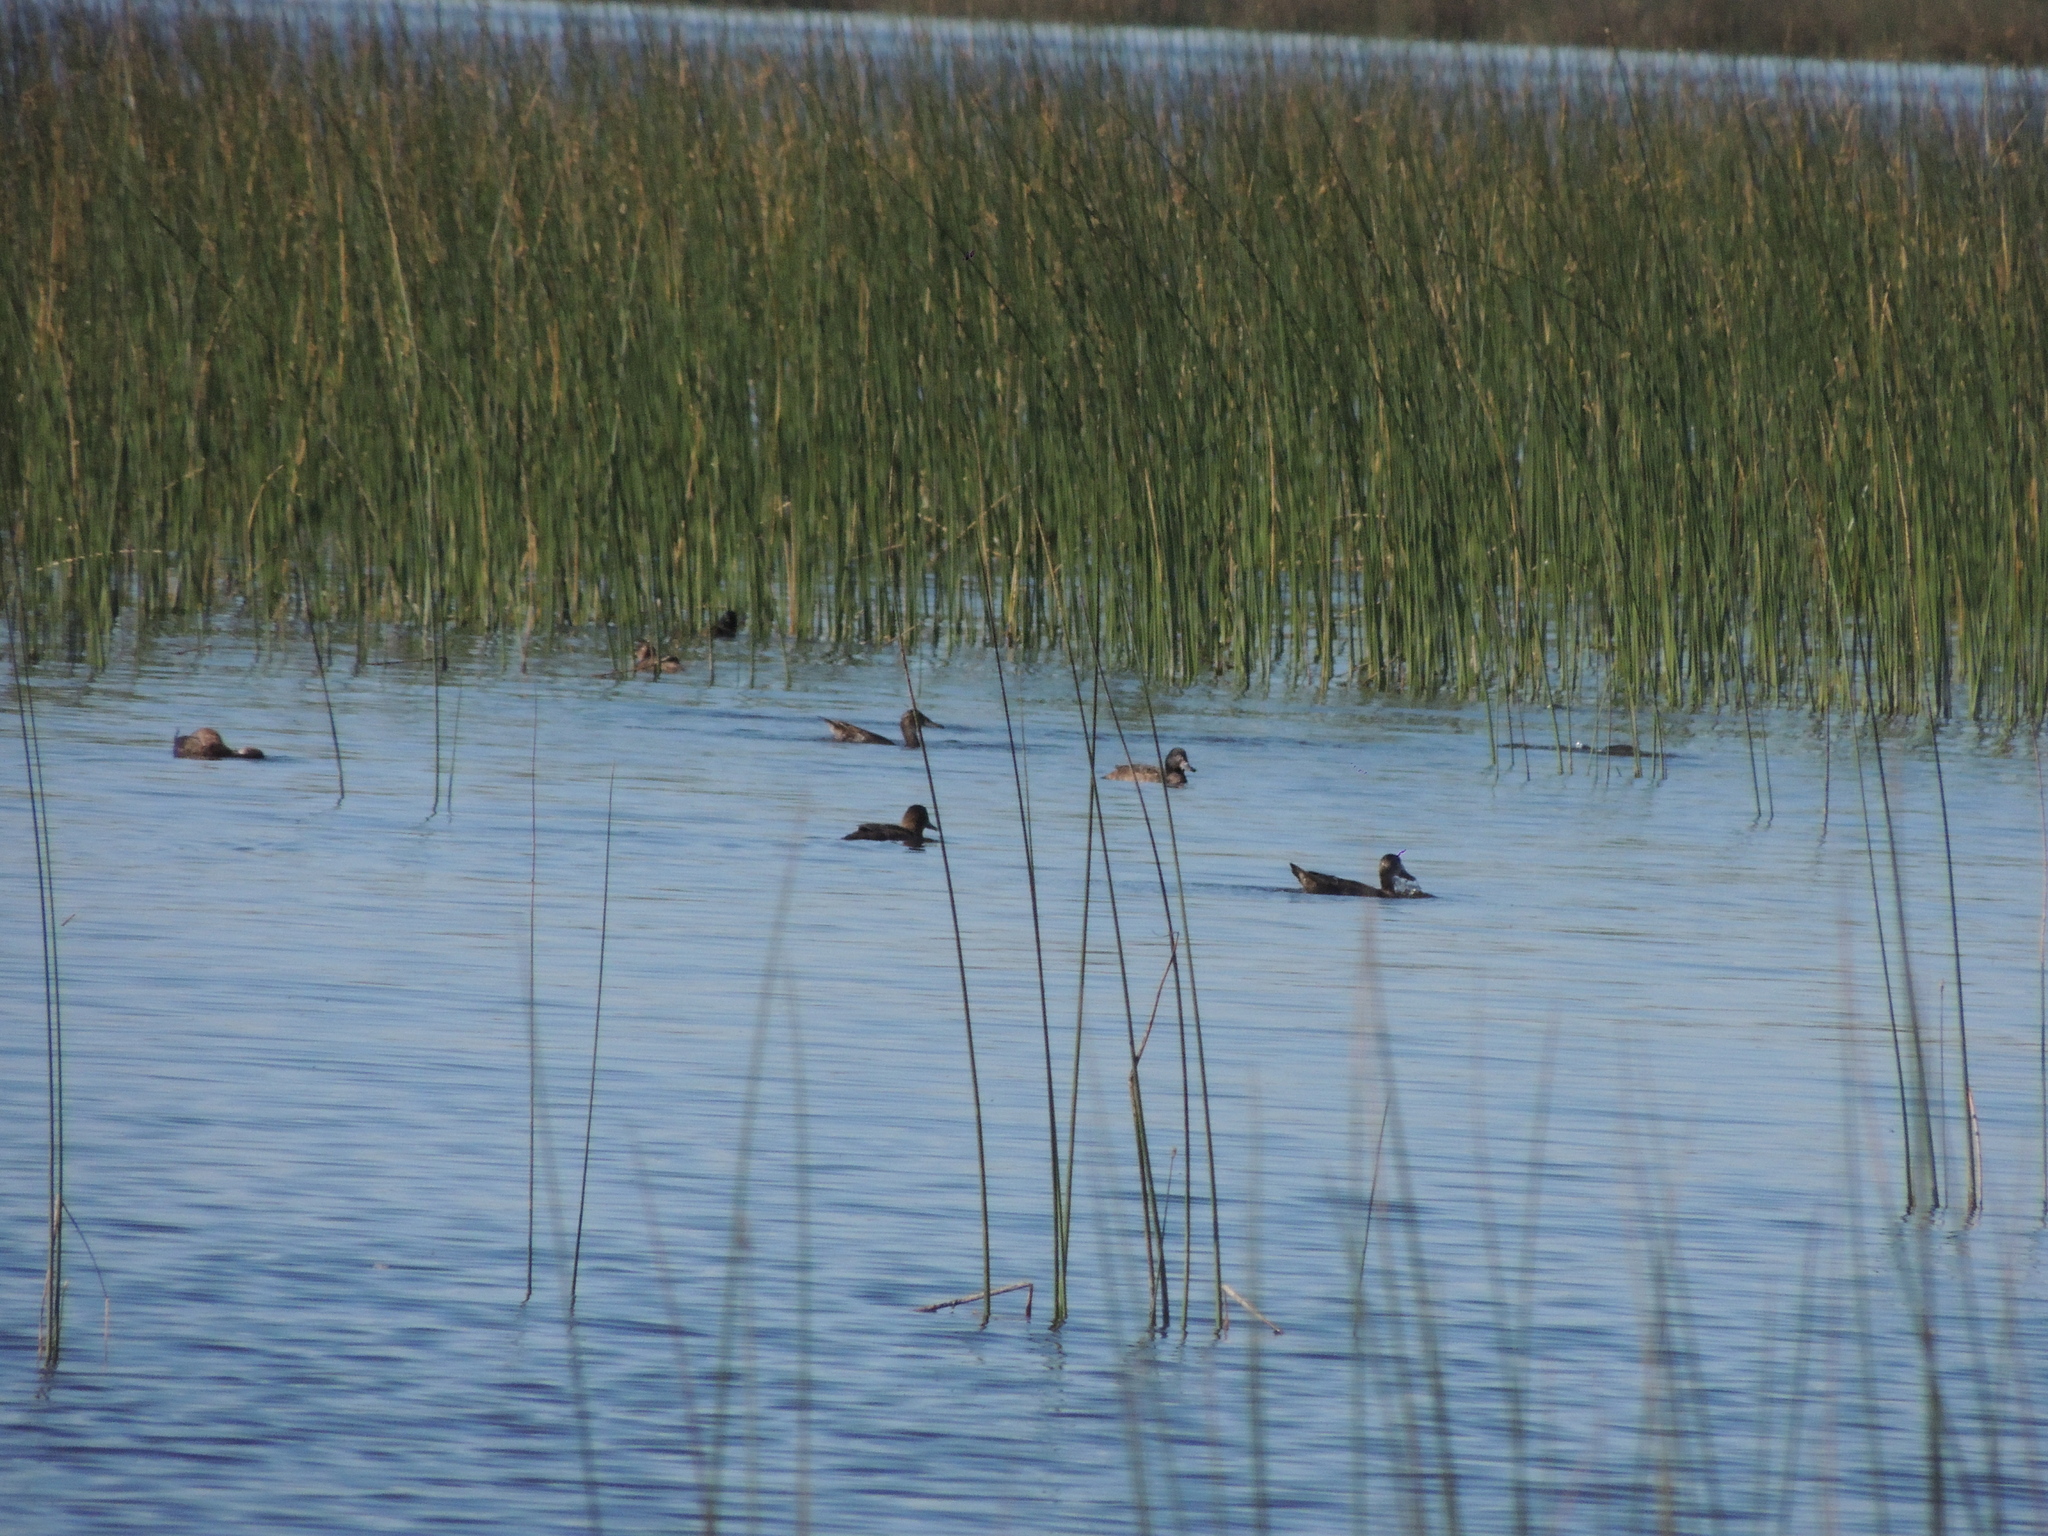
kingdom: Animalia
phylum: Chordata
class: Aves
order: Anseriformes
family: Anatidae
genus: Heteronetta
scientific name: Heteronetta atricapilla
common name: Black-headed duck
